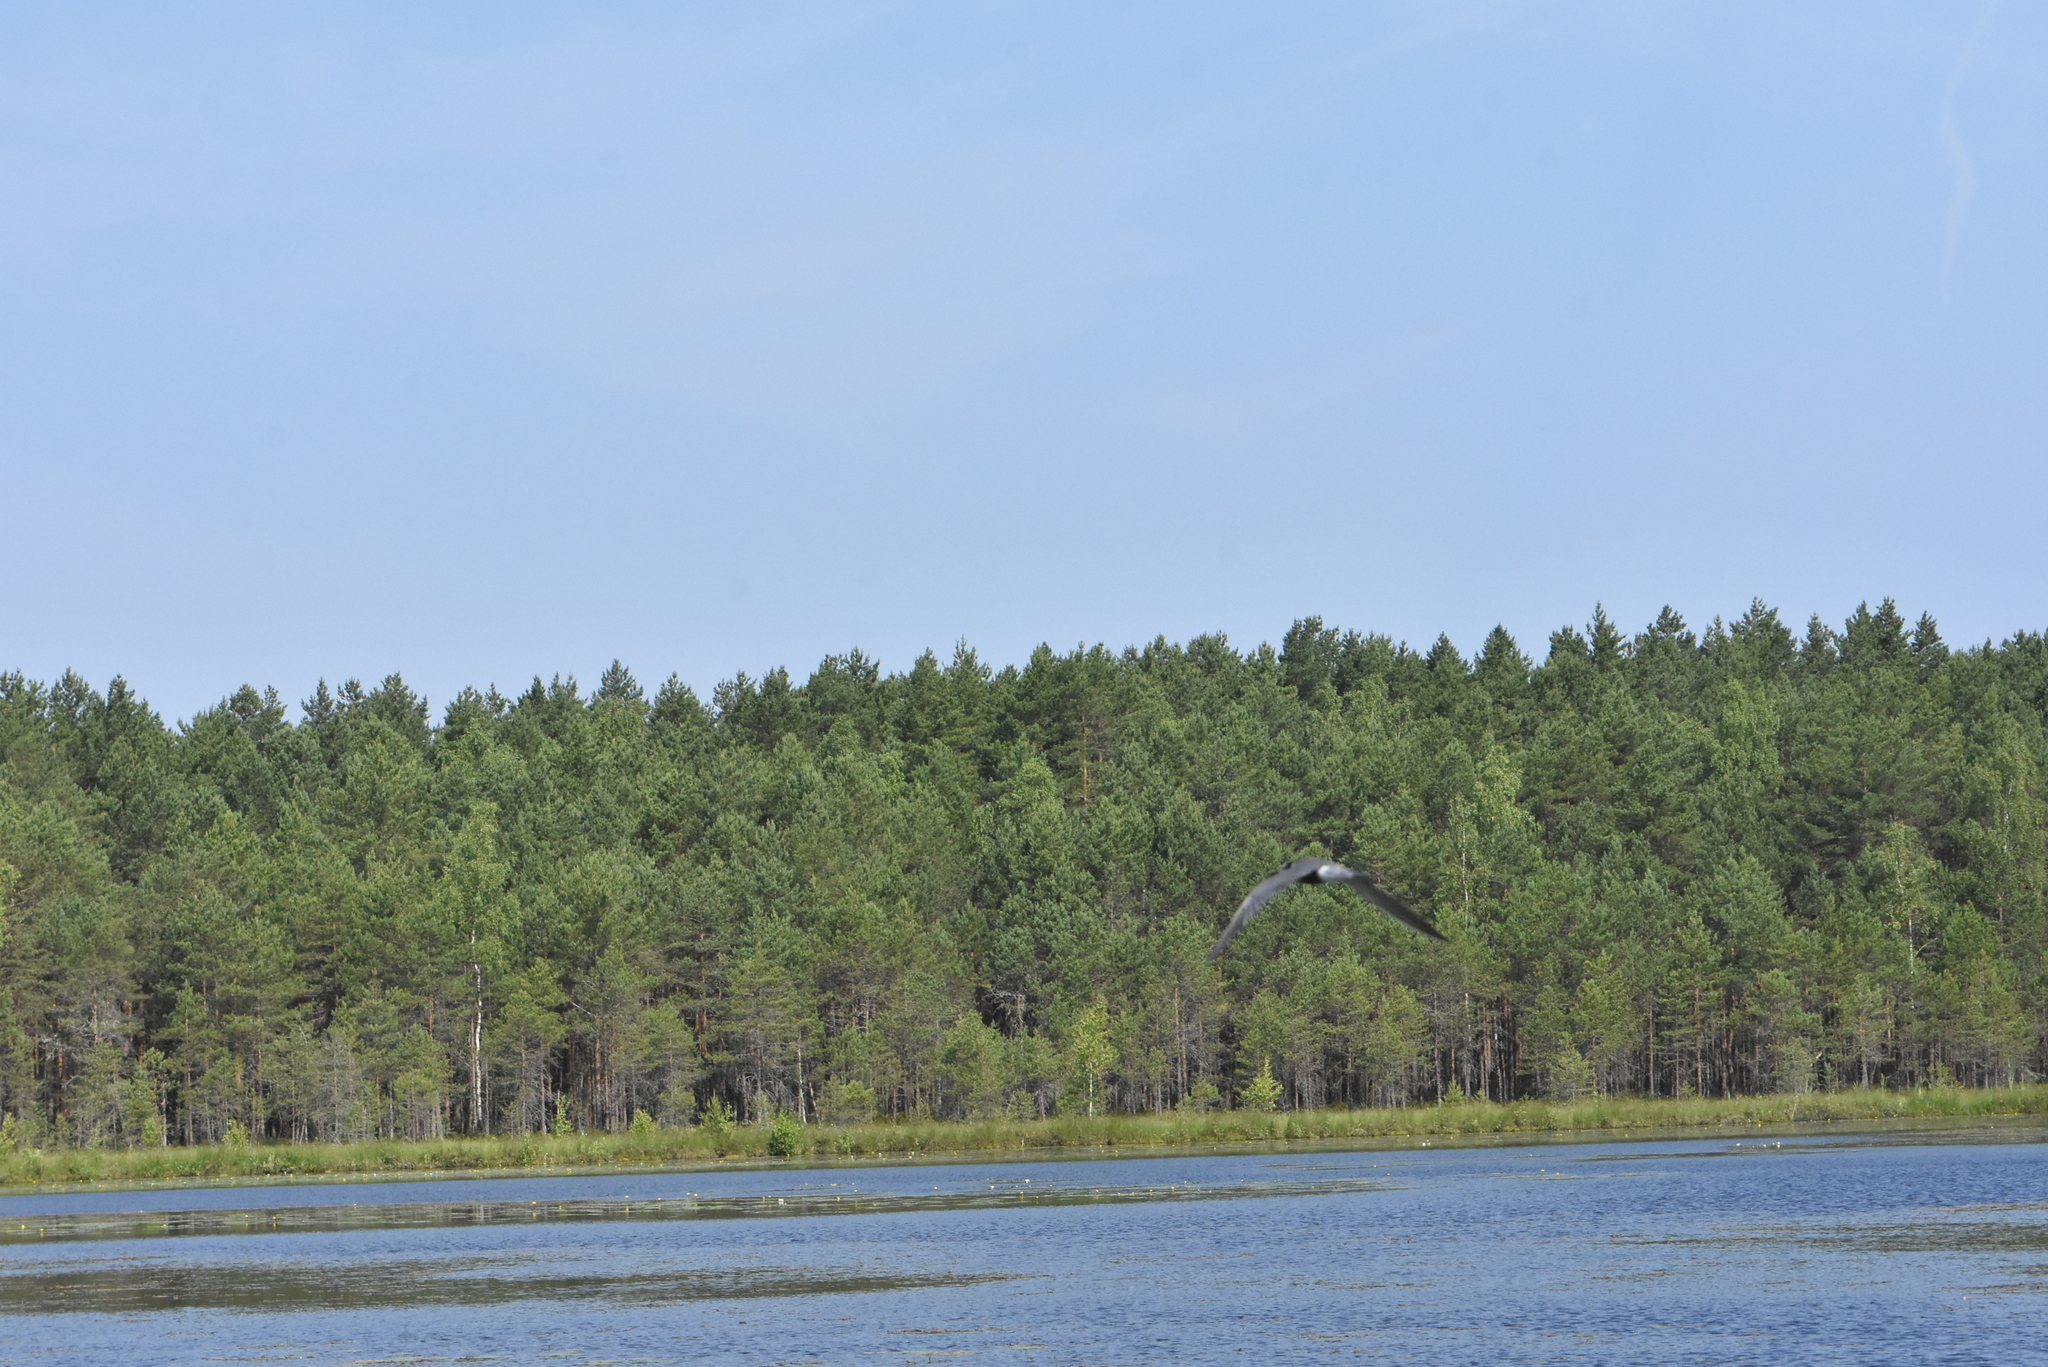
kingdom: Animalia
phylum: Chordata
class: Aves
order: Charadriiformes
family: Laridae
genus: Chlidonias
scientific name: Chlidonias niger
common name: Black tern
